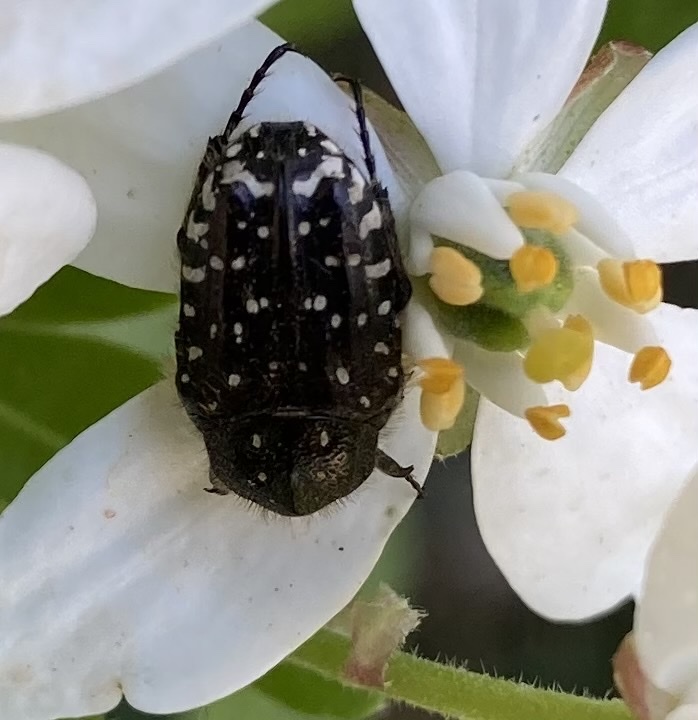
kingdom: Animalia
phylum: Arthropoda
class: Insecta
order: Coleoptera
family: Scarabaeidae
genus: Oxythyrea
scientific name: Oxythyrea funesta
